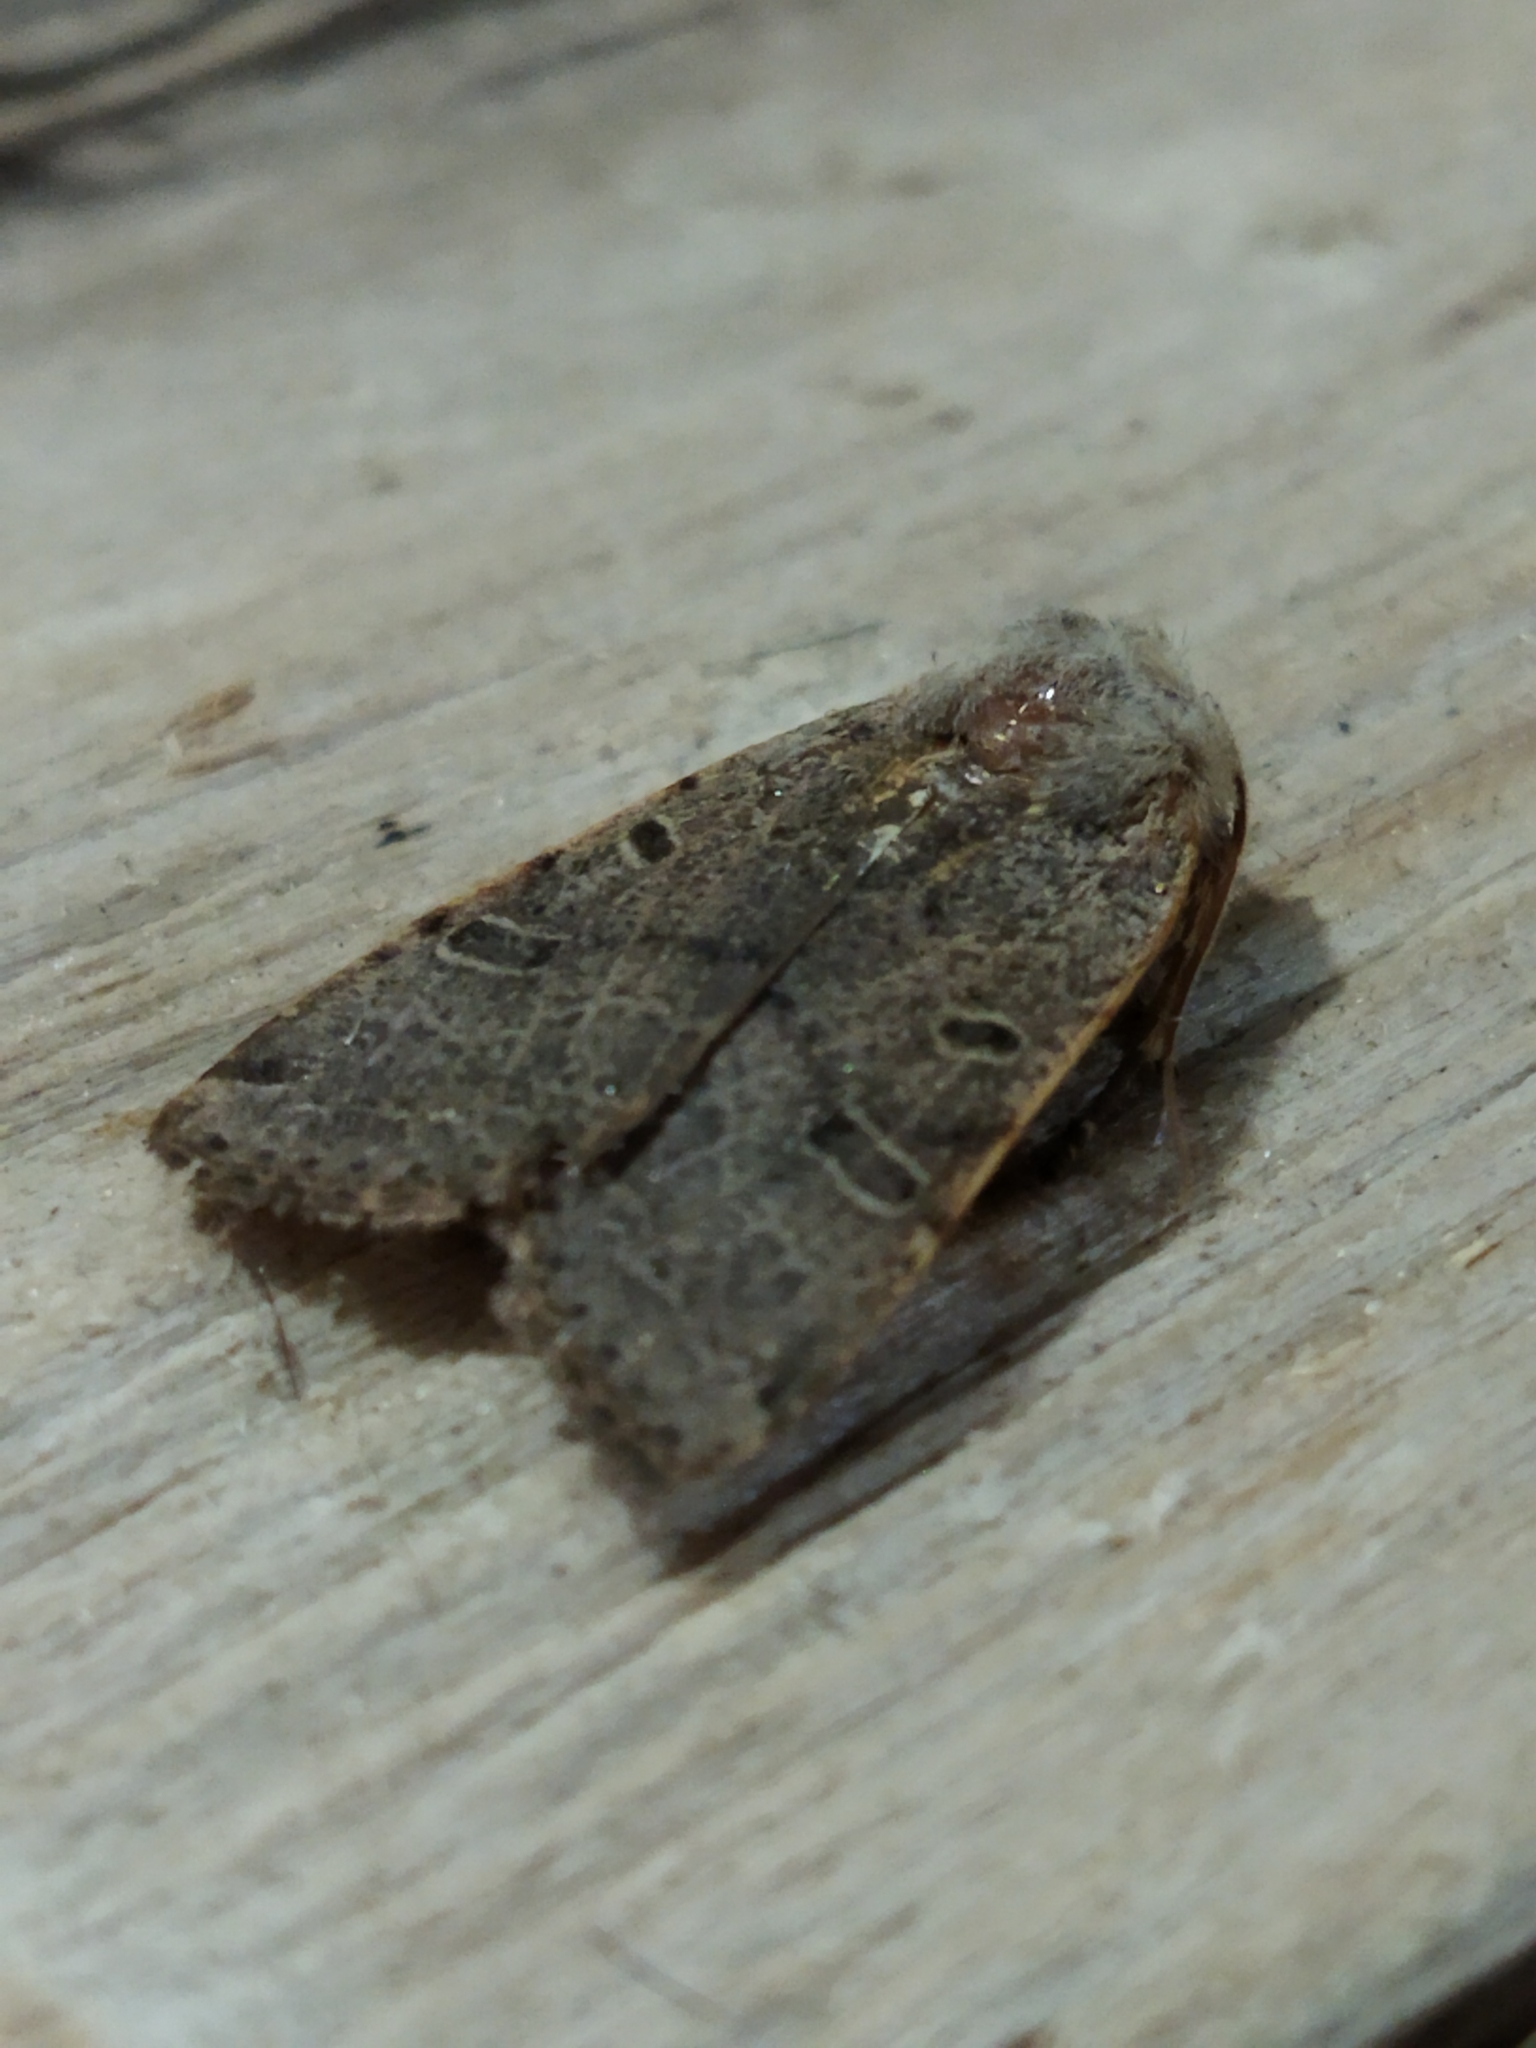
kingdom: Animalia
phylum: Arthropoda
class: Insecta
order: Lepidoptera
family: Noctuidae
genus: Agrochola
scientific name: Agrochola lychnidis
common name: Beaded chestnut
